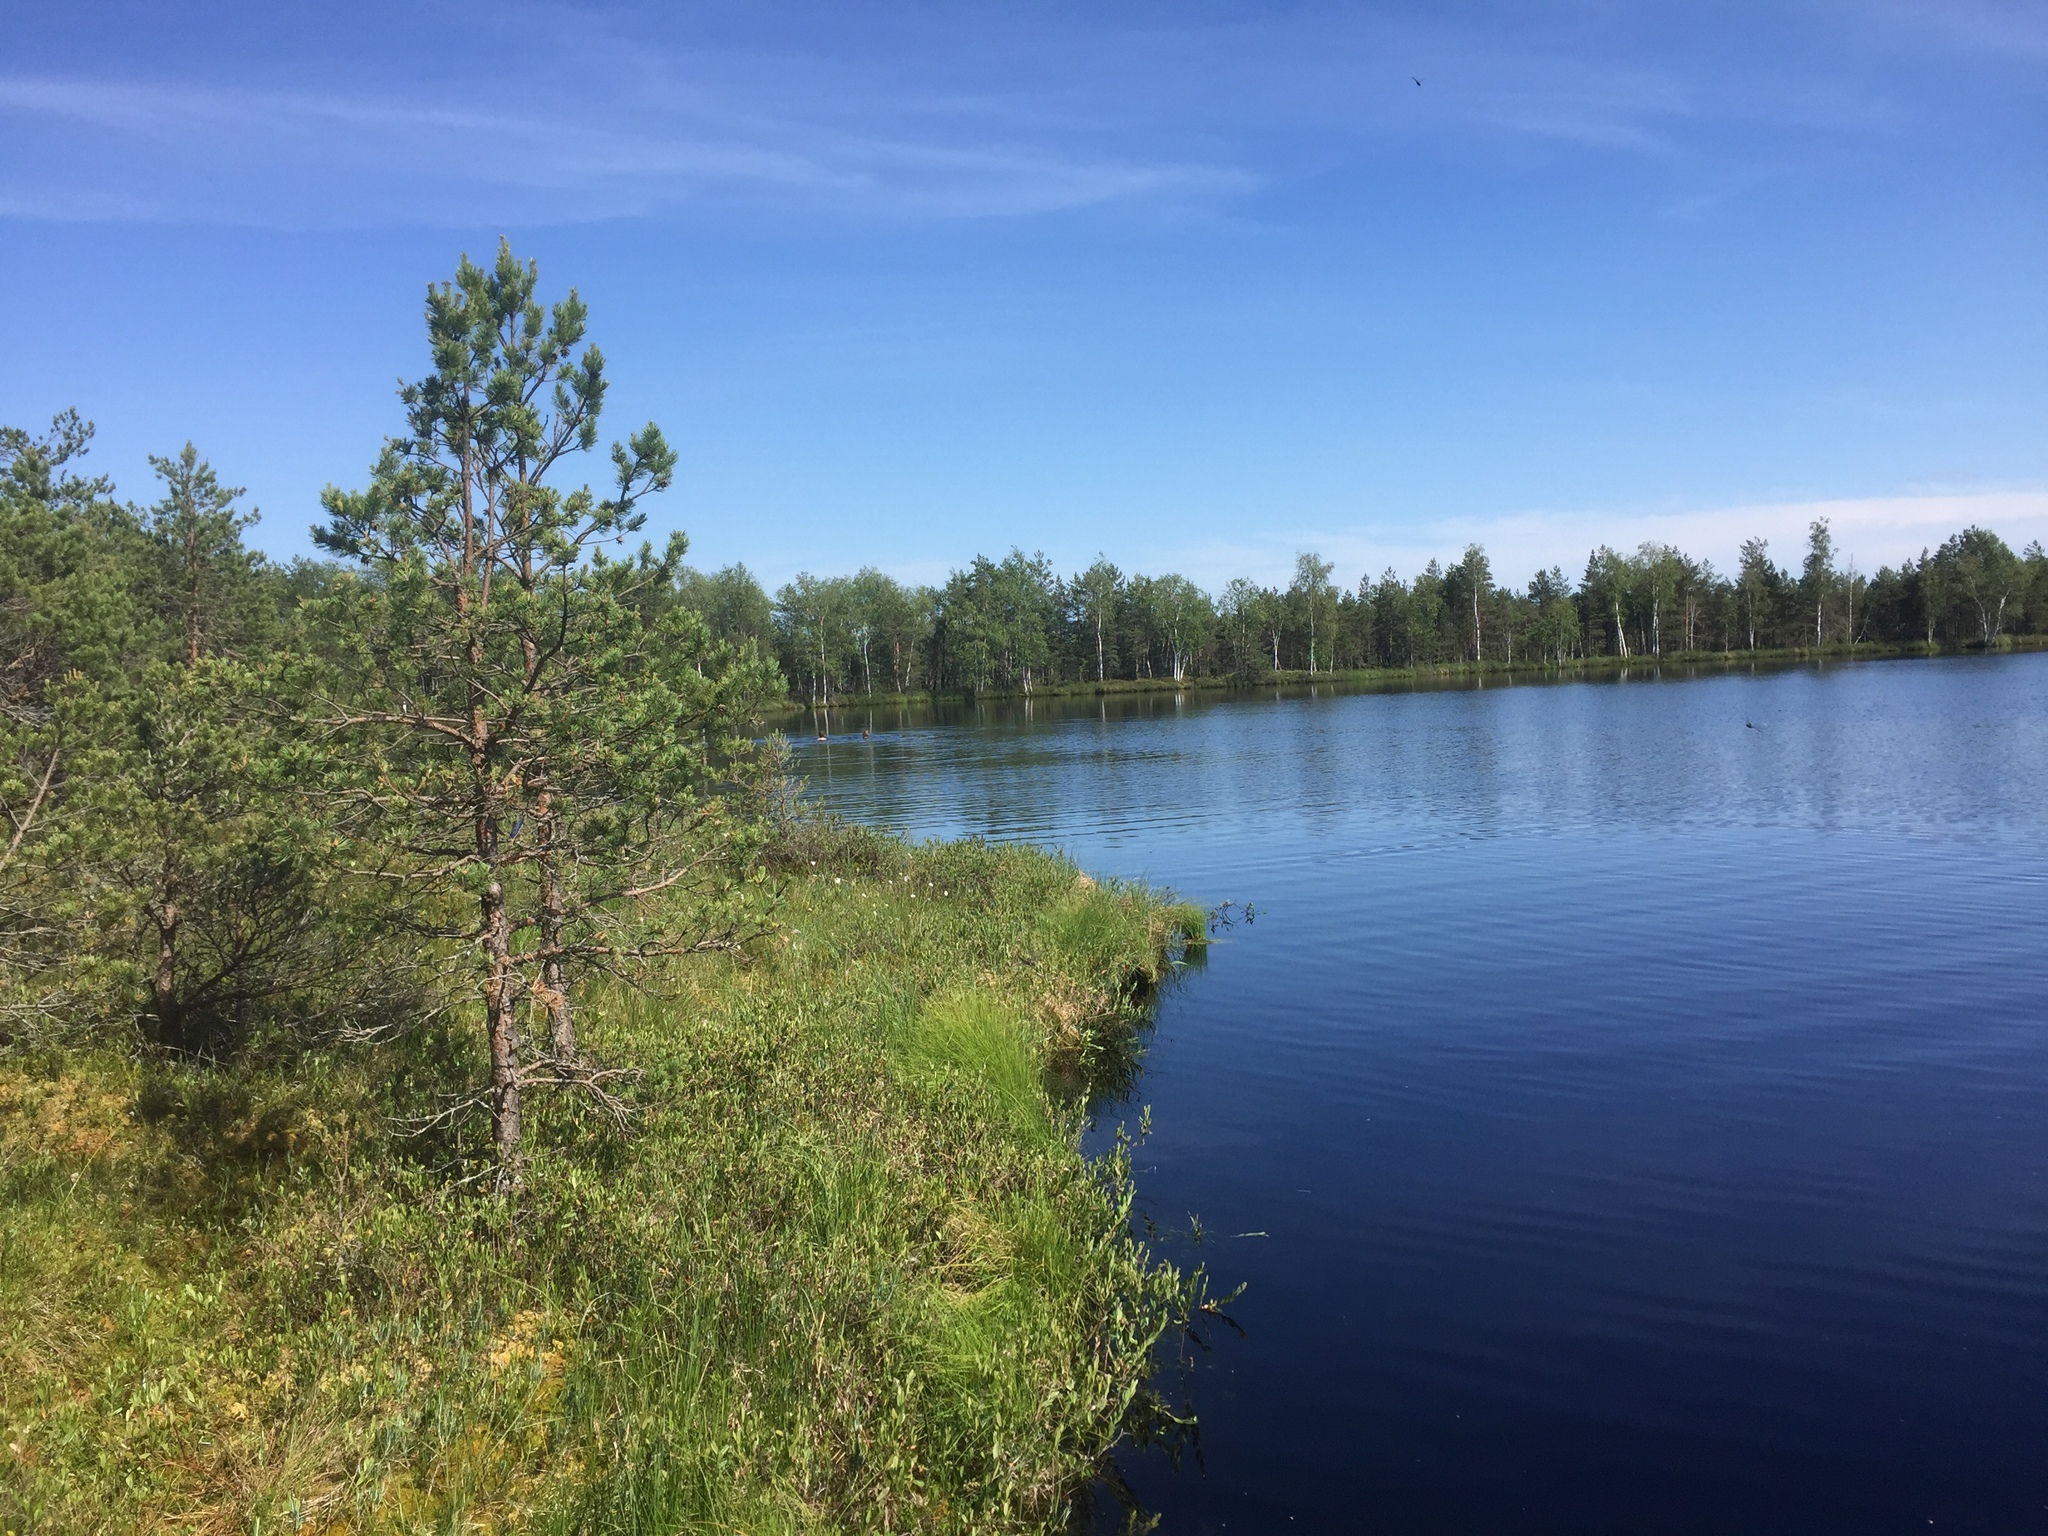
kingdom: Plantae
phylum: Tracheophyta
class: Pinopsida
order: Pinales
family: Pinaceae
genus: Pinus
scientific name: Pinus sylvestris
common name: Scots pine
